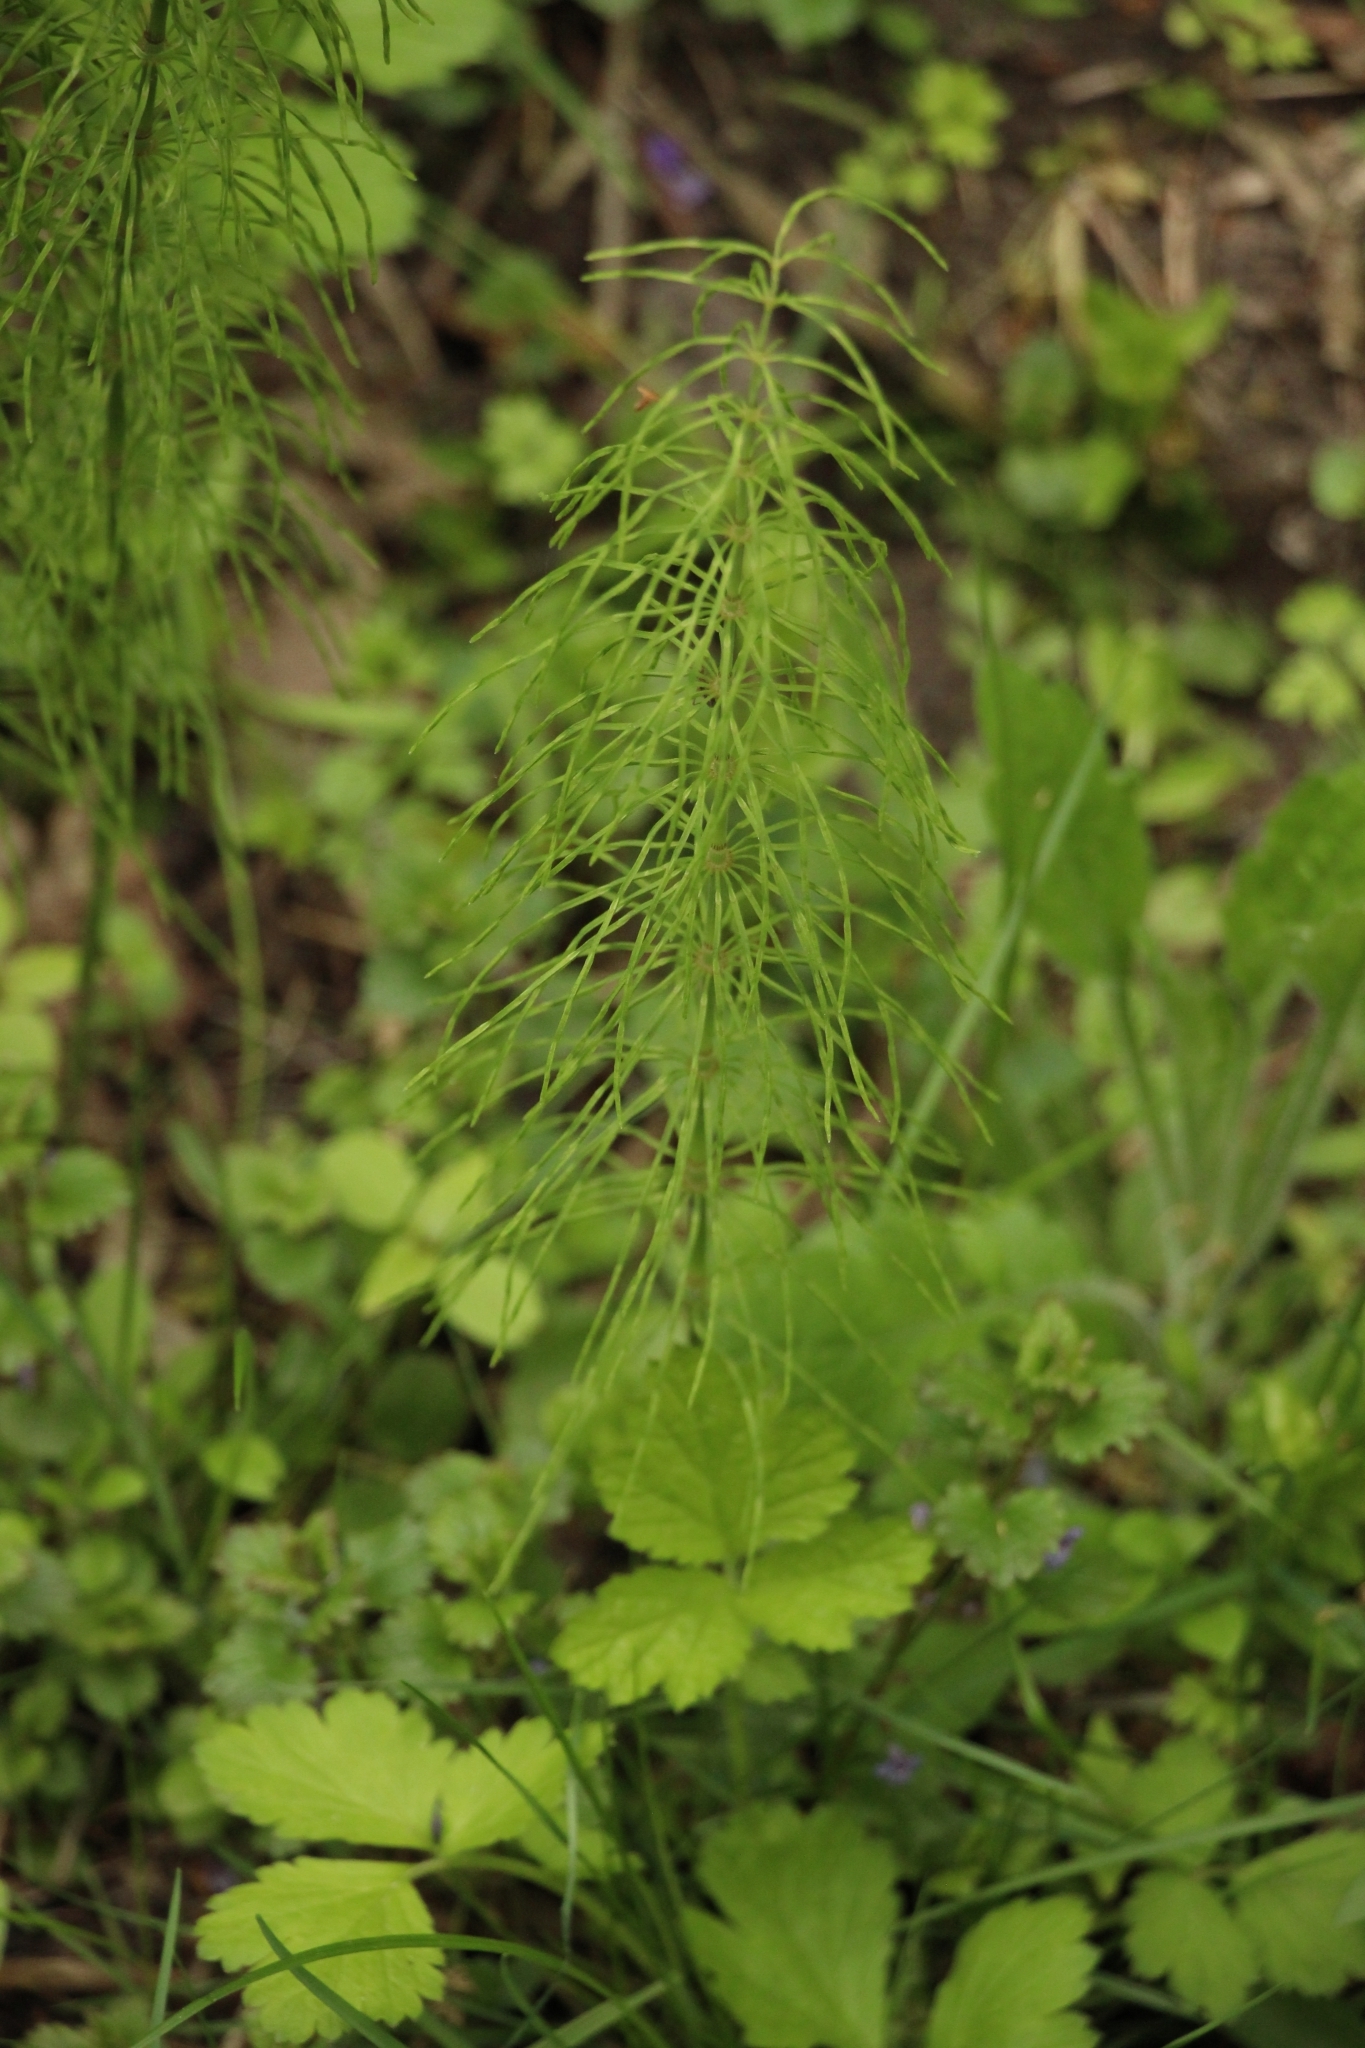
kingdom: Plantae
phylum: Tracheophyta
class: Polypodiopsida
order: Equisetales
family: Equisetaceae
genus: Equisetum
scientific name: Equisetum pratense
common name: Meadow horsetail
